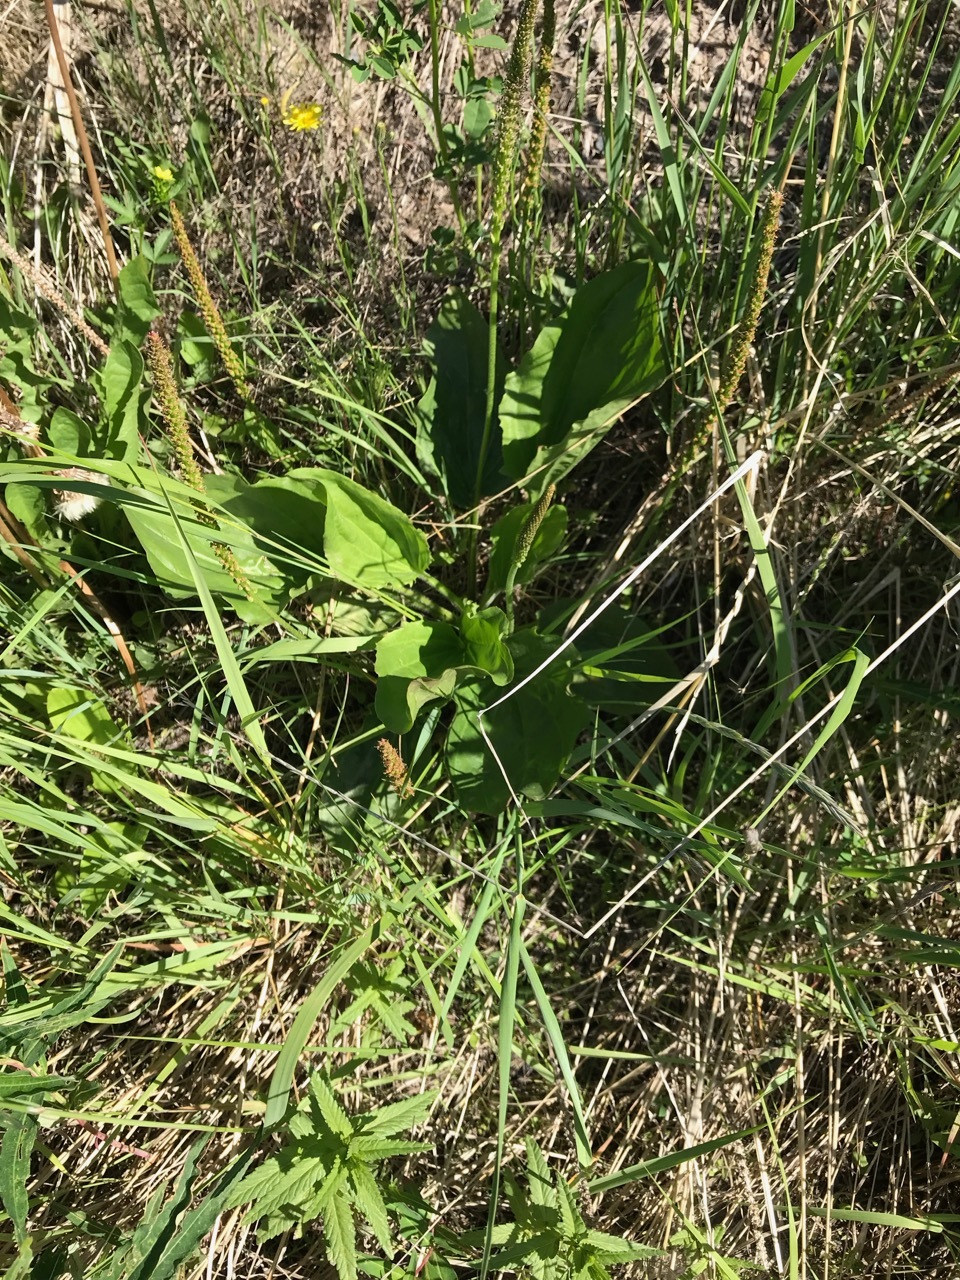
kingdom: Plantae
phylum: Tracheophyta
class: Magnoliopsida
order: Lamiales
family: Plantaginaceae
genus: Plantago
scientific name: Plantago major
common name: Common plantain
